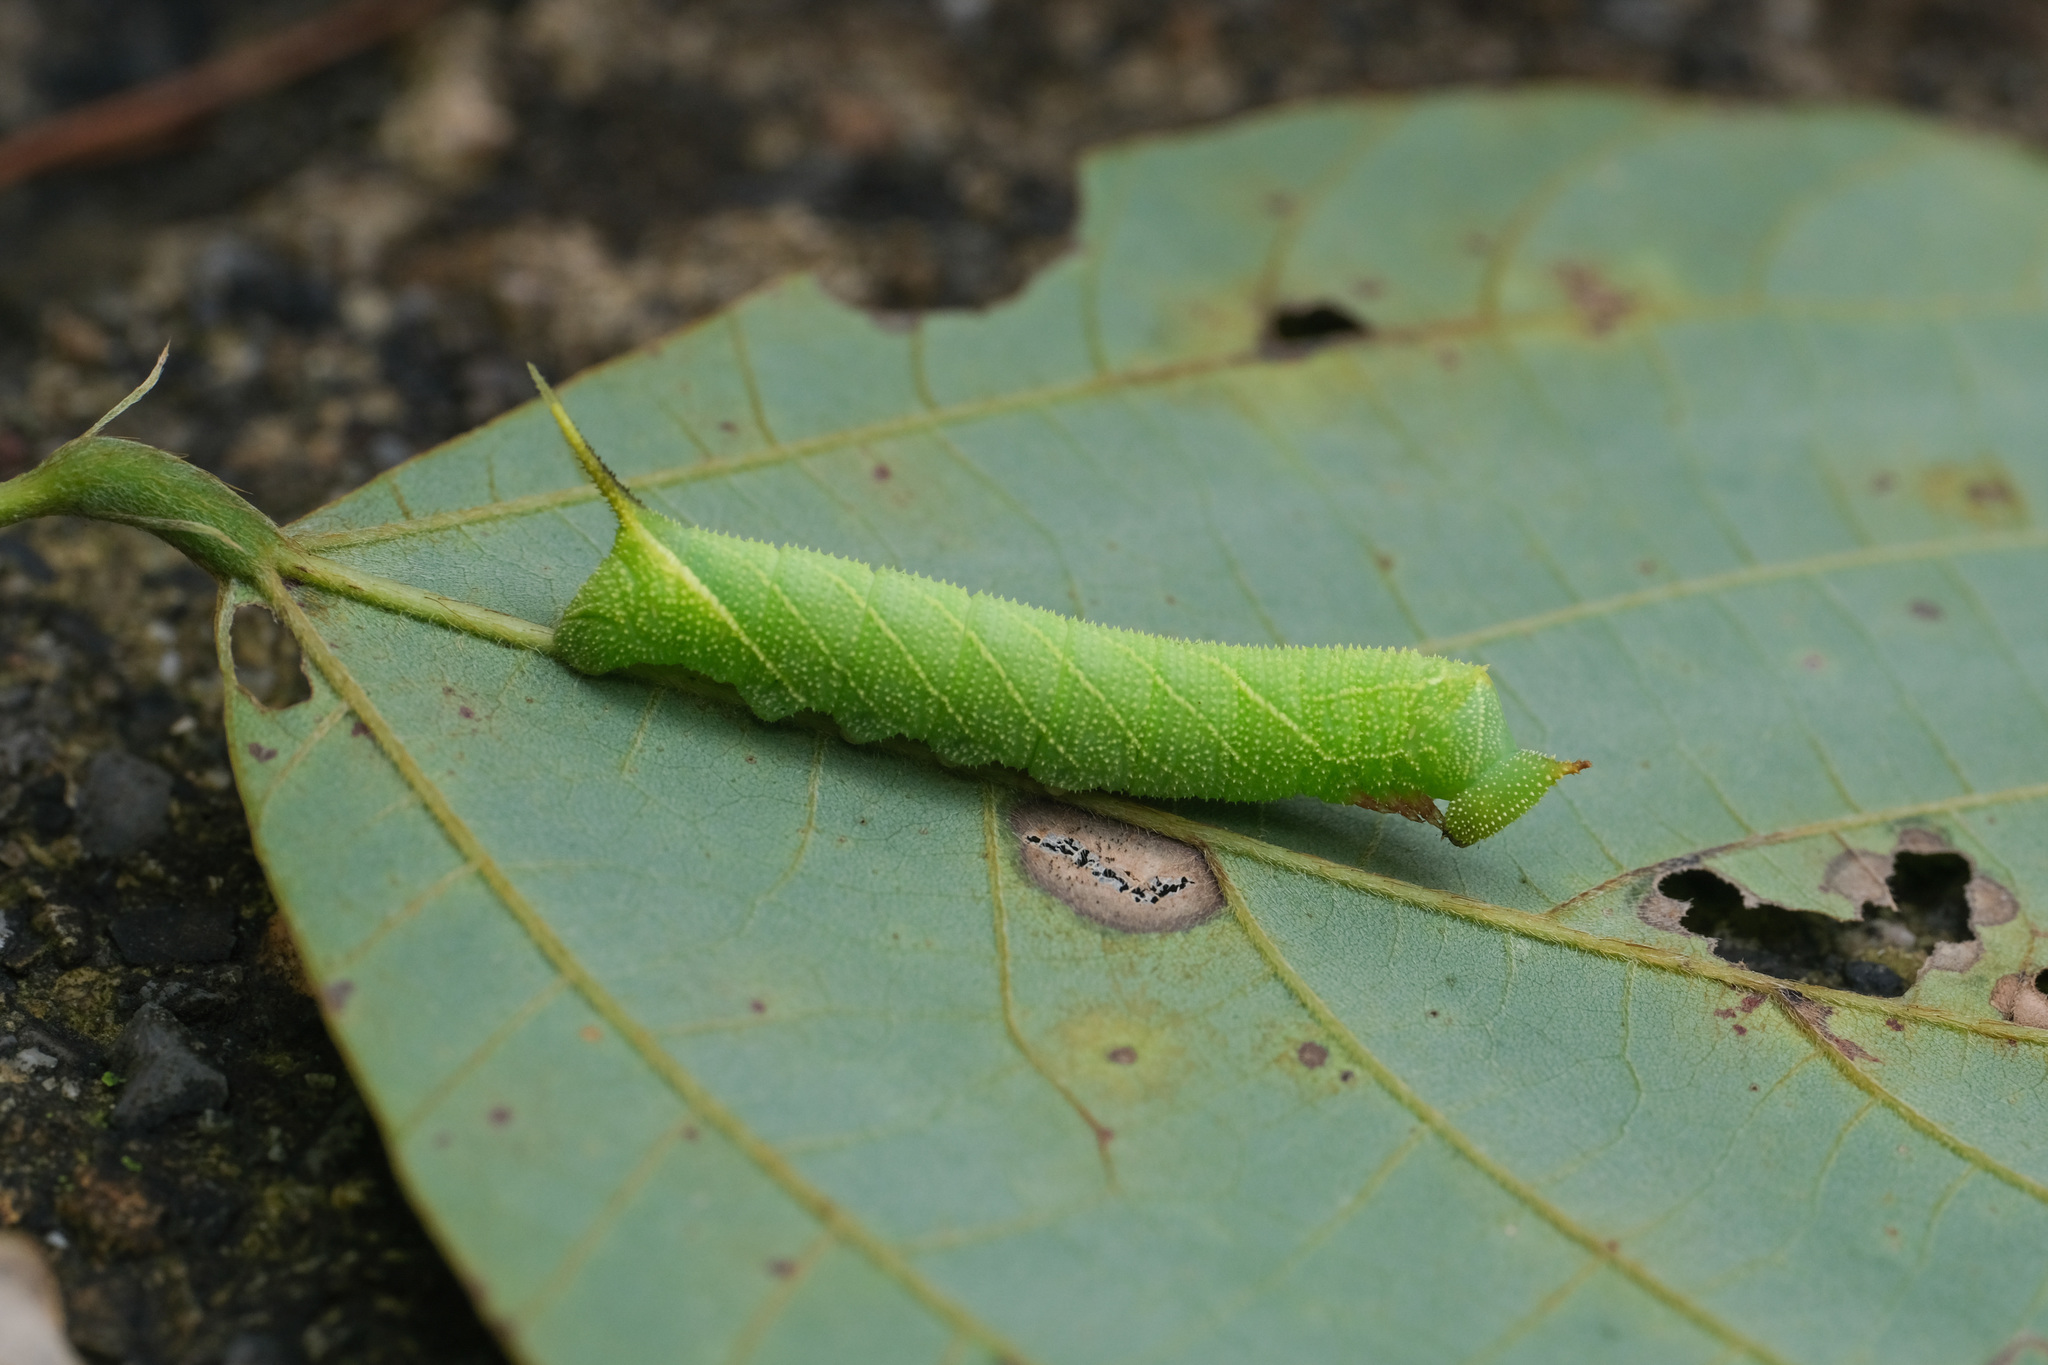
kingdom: Animalia
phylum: Arthropoda
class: Insecta
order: Lepidoptera
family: Sphingidae
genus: Marumba
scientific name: Marumba gaschkewitschii
